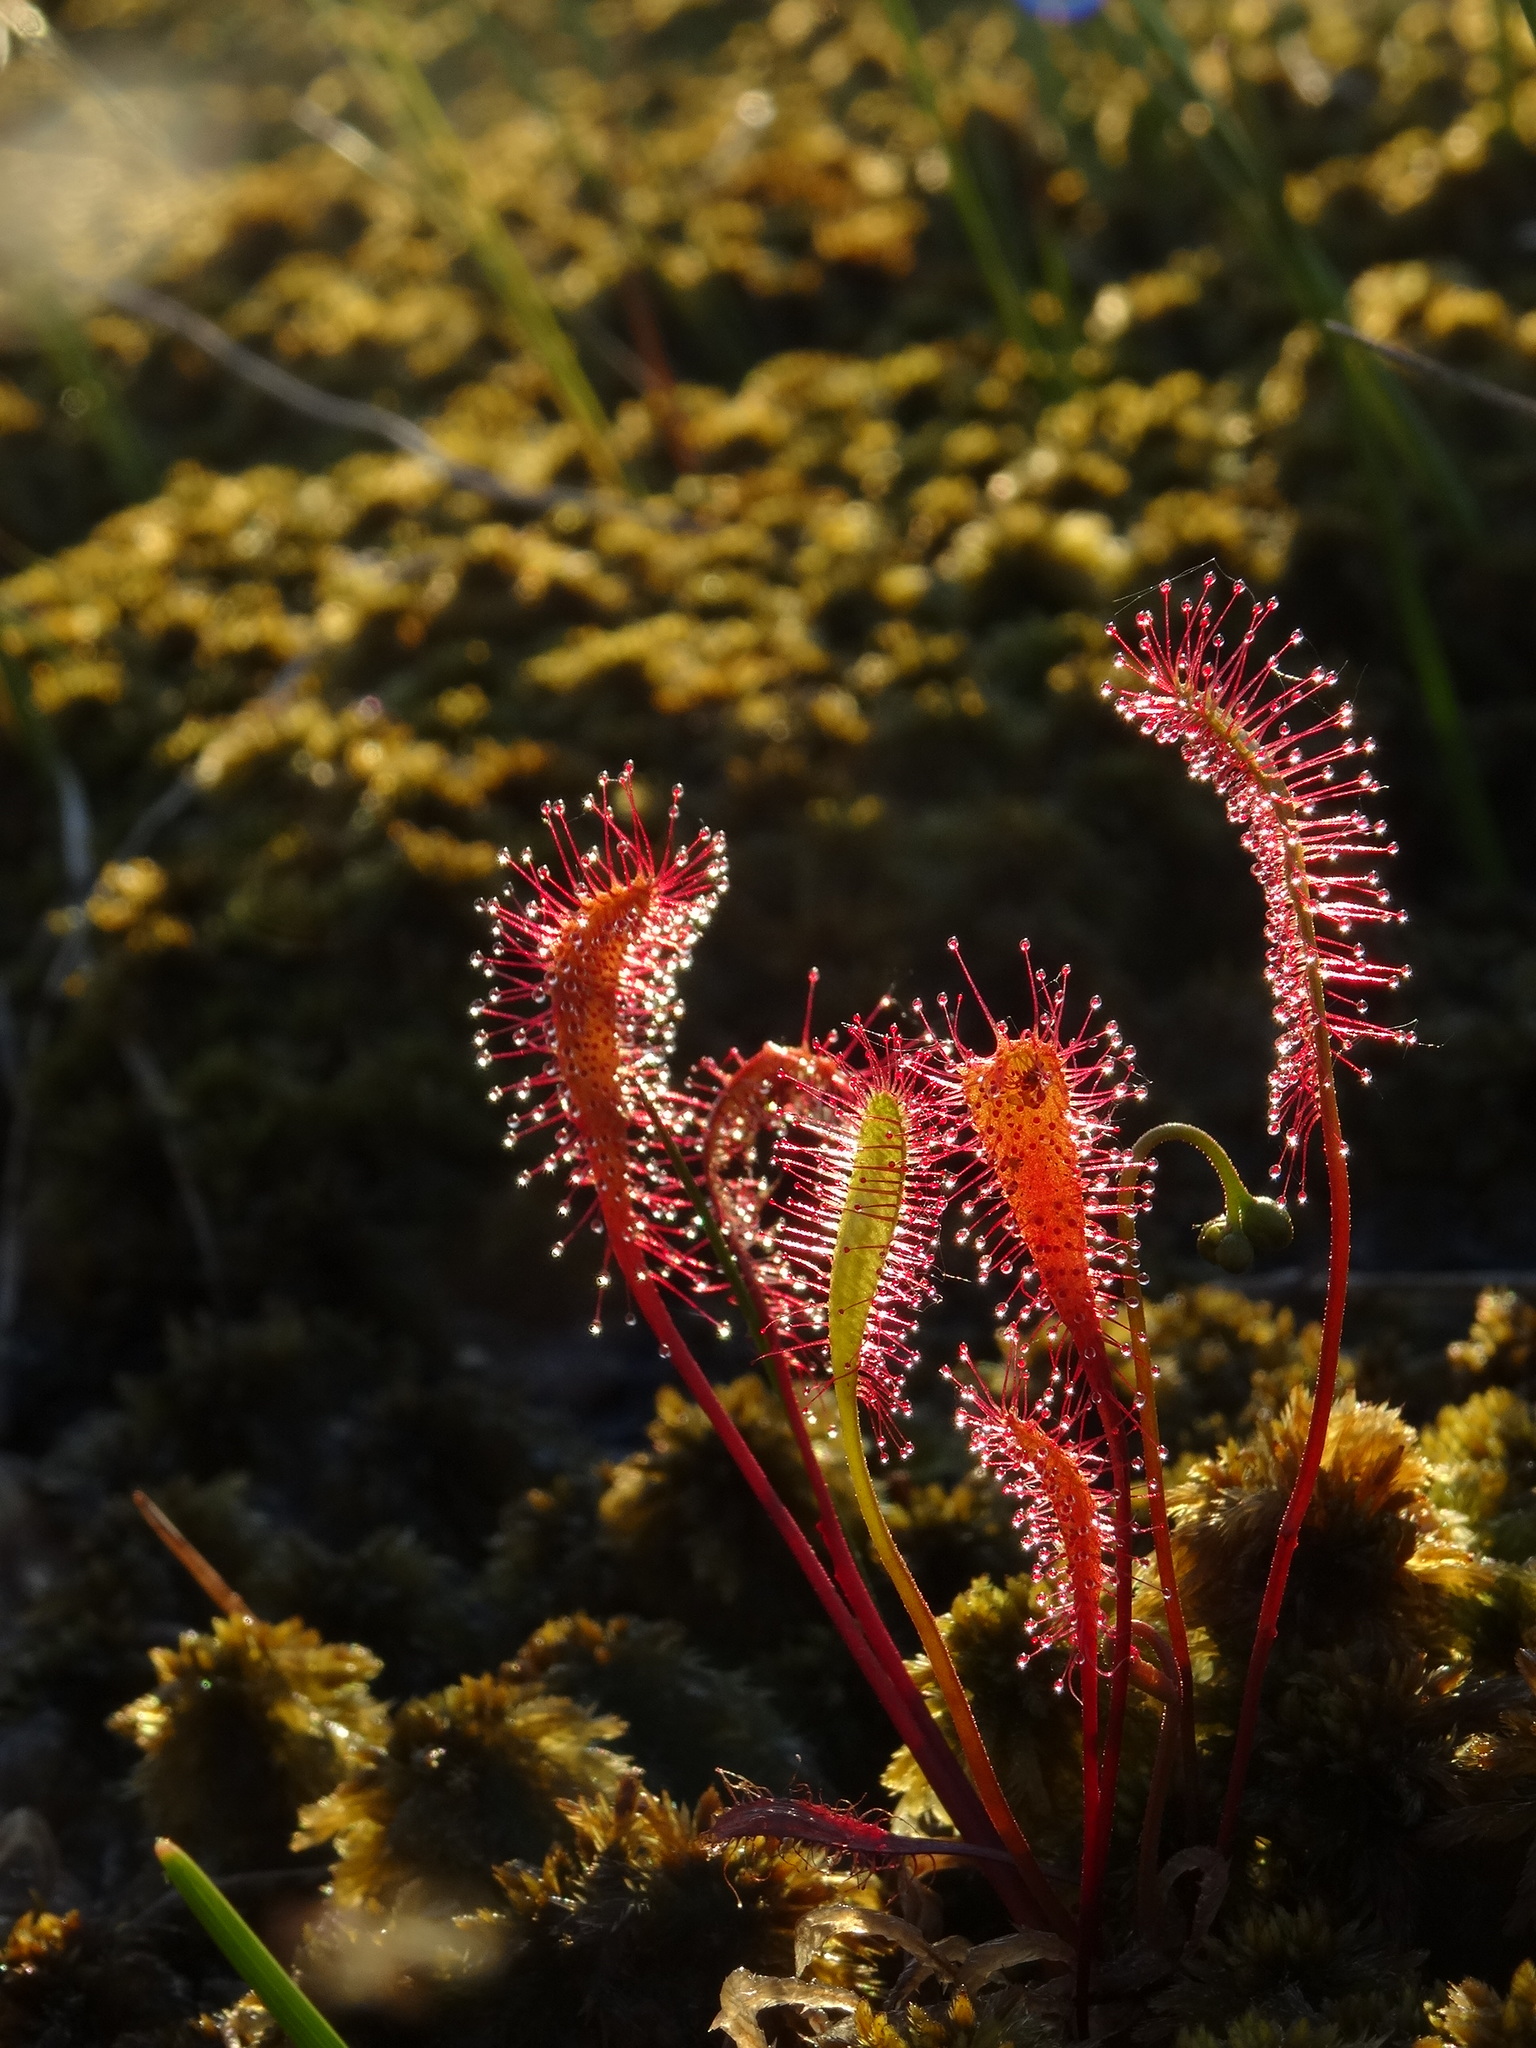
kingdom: Plantae
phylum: Tracheophyta
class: Magnoliopsida
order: Caryophyllales
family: Droseraceae
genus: Drosera
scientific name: Drosera anglica
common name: Great sundew
